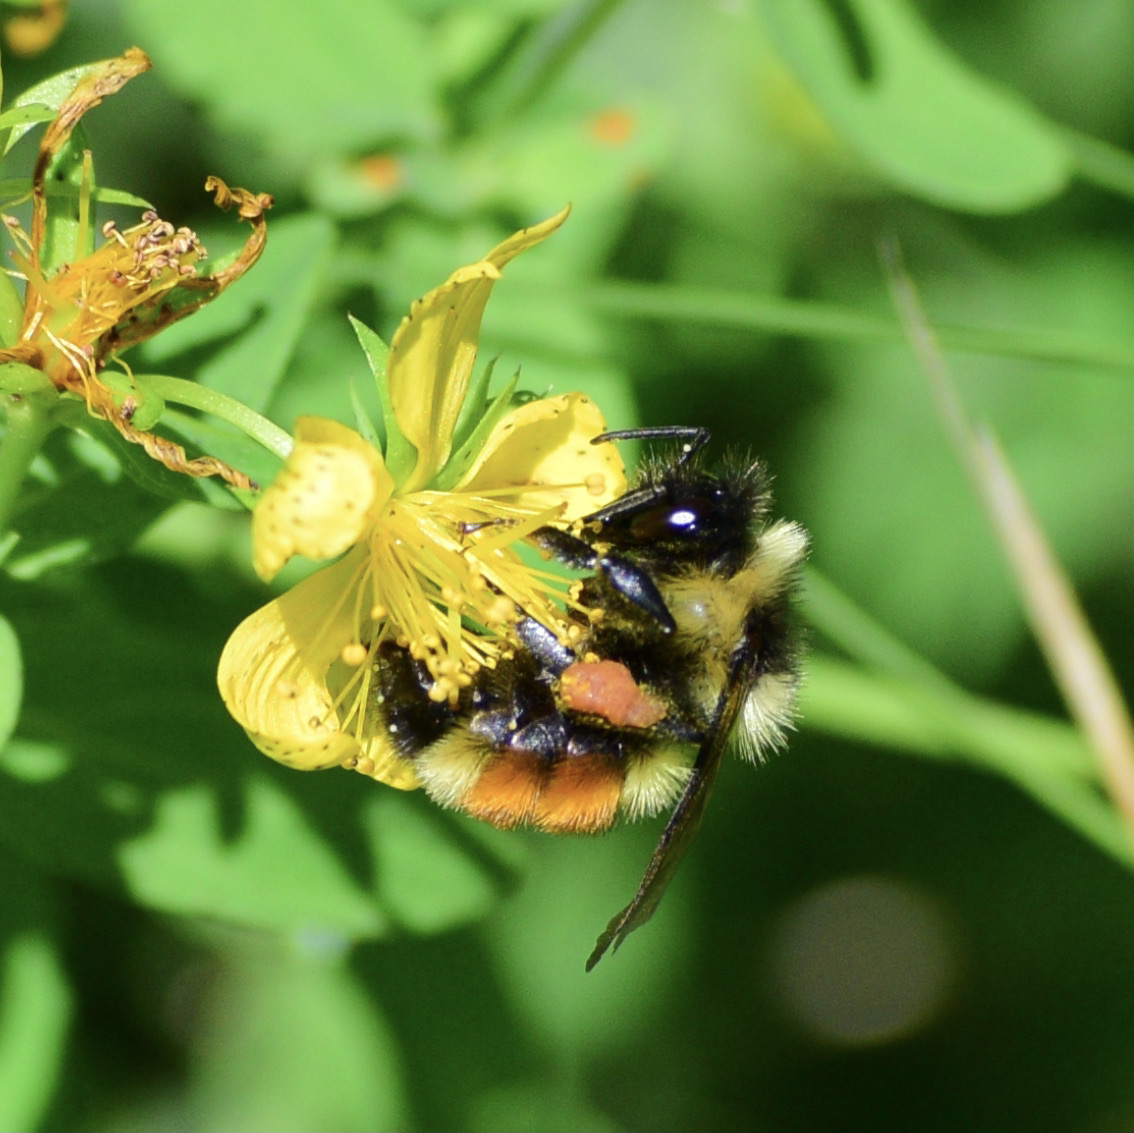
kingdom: Animalia
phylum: Arthropoda
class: Insecta
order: Hymenoptera
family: Apidae
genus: Bombus
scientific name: Bombus ternarius
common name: Tri-colored bumble bee
